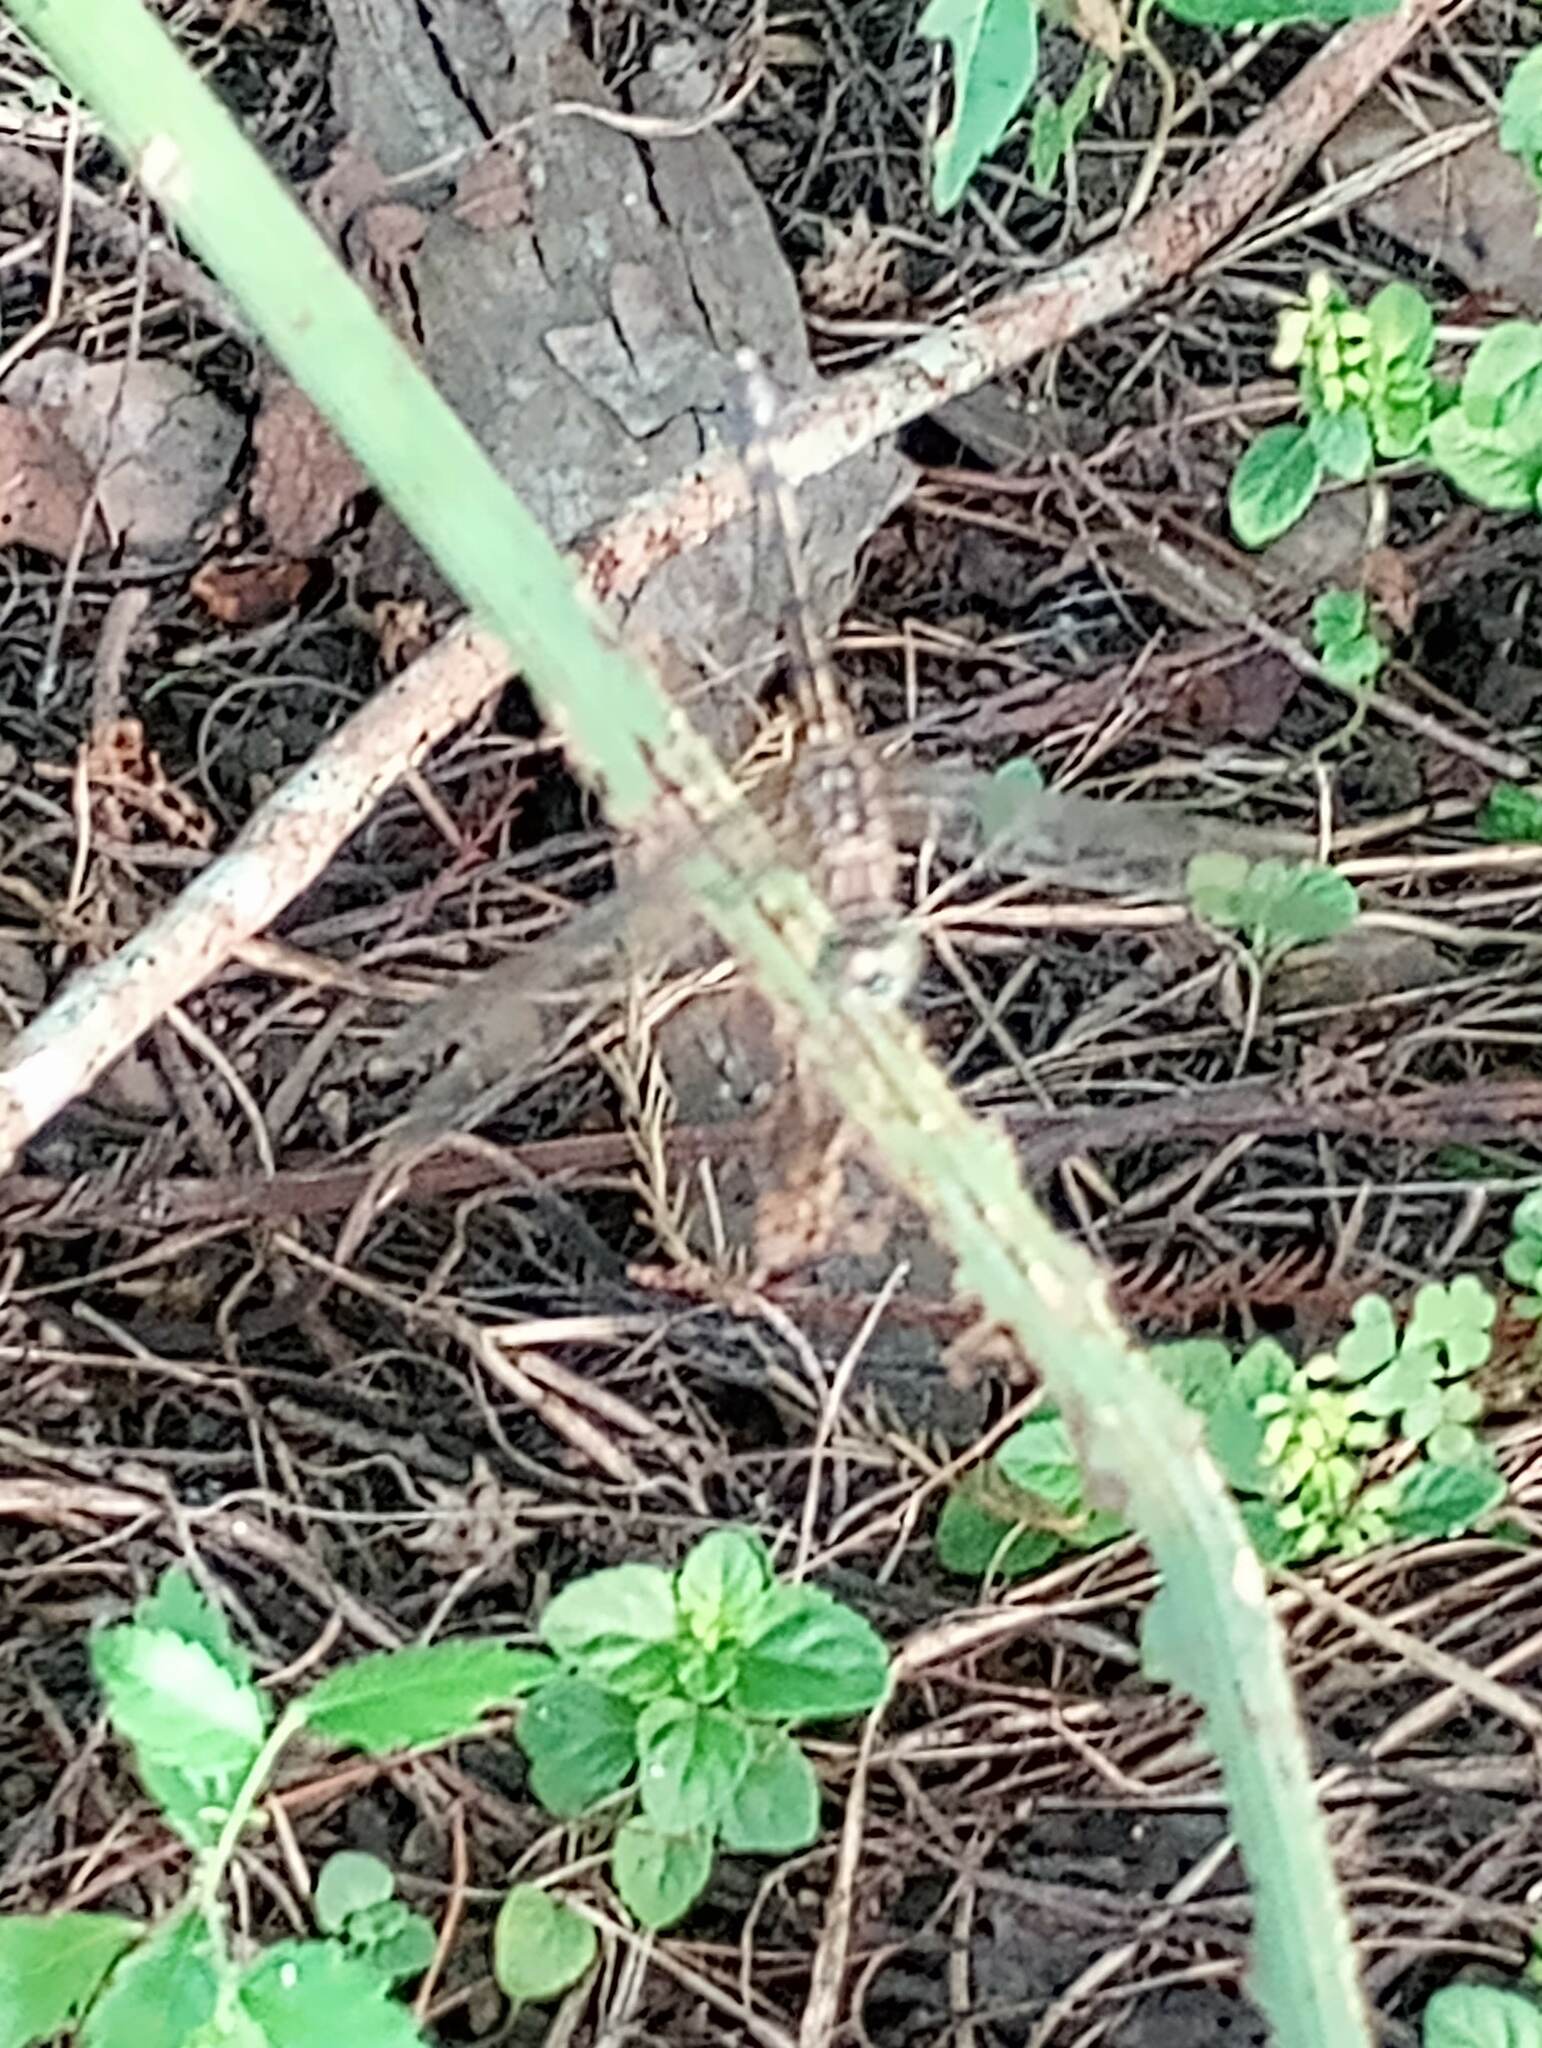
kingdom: Animalia
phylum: Arthropoda
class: Insecta
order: Odonata
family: Libellulidae
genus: Pachydiplax
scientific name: Pachydiplax longipennis
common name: Blue dasher
